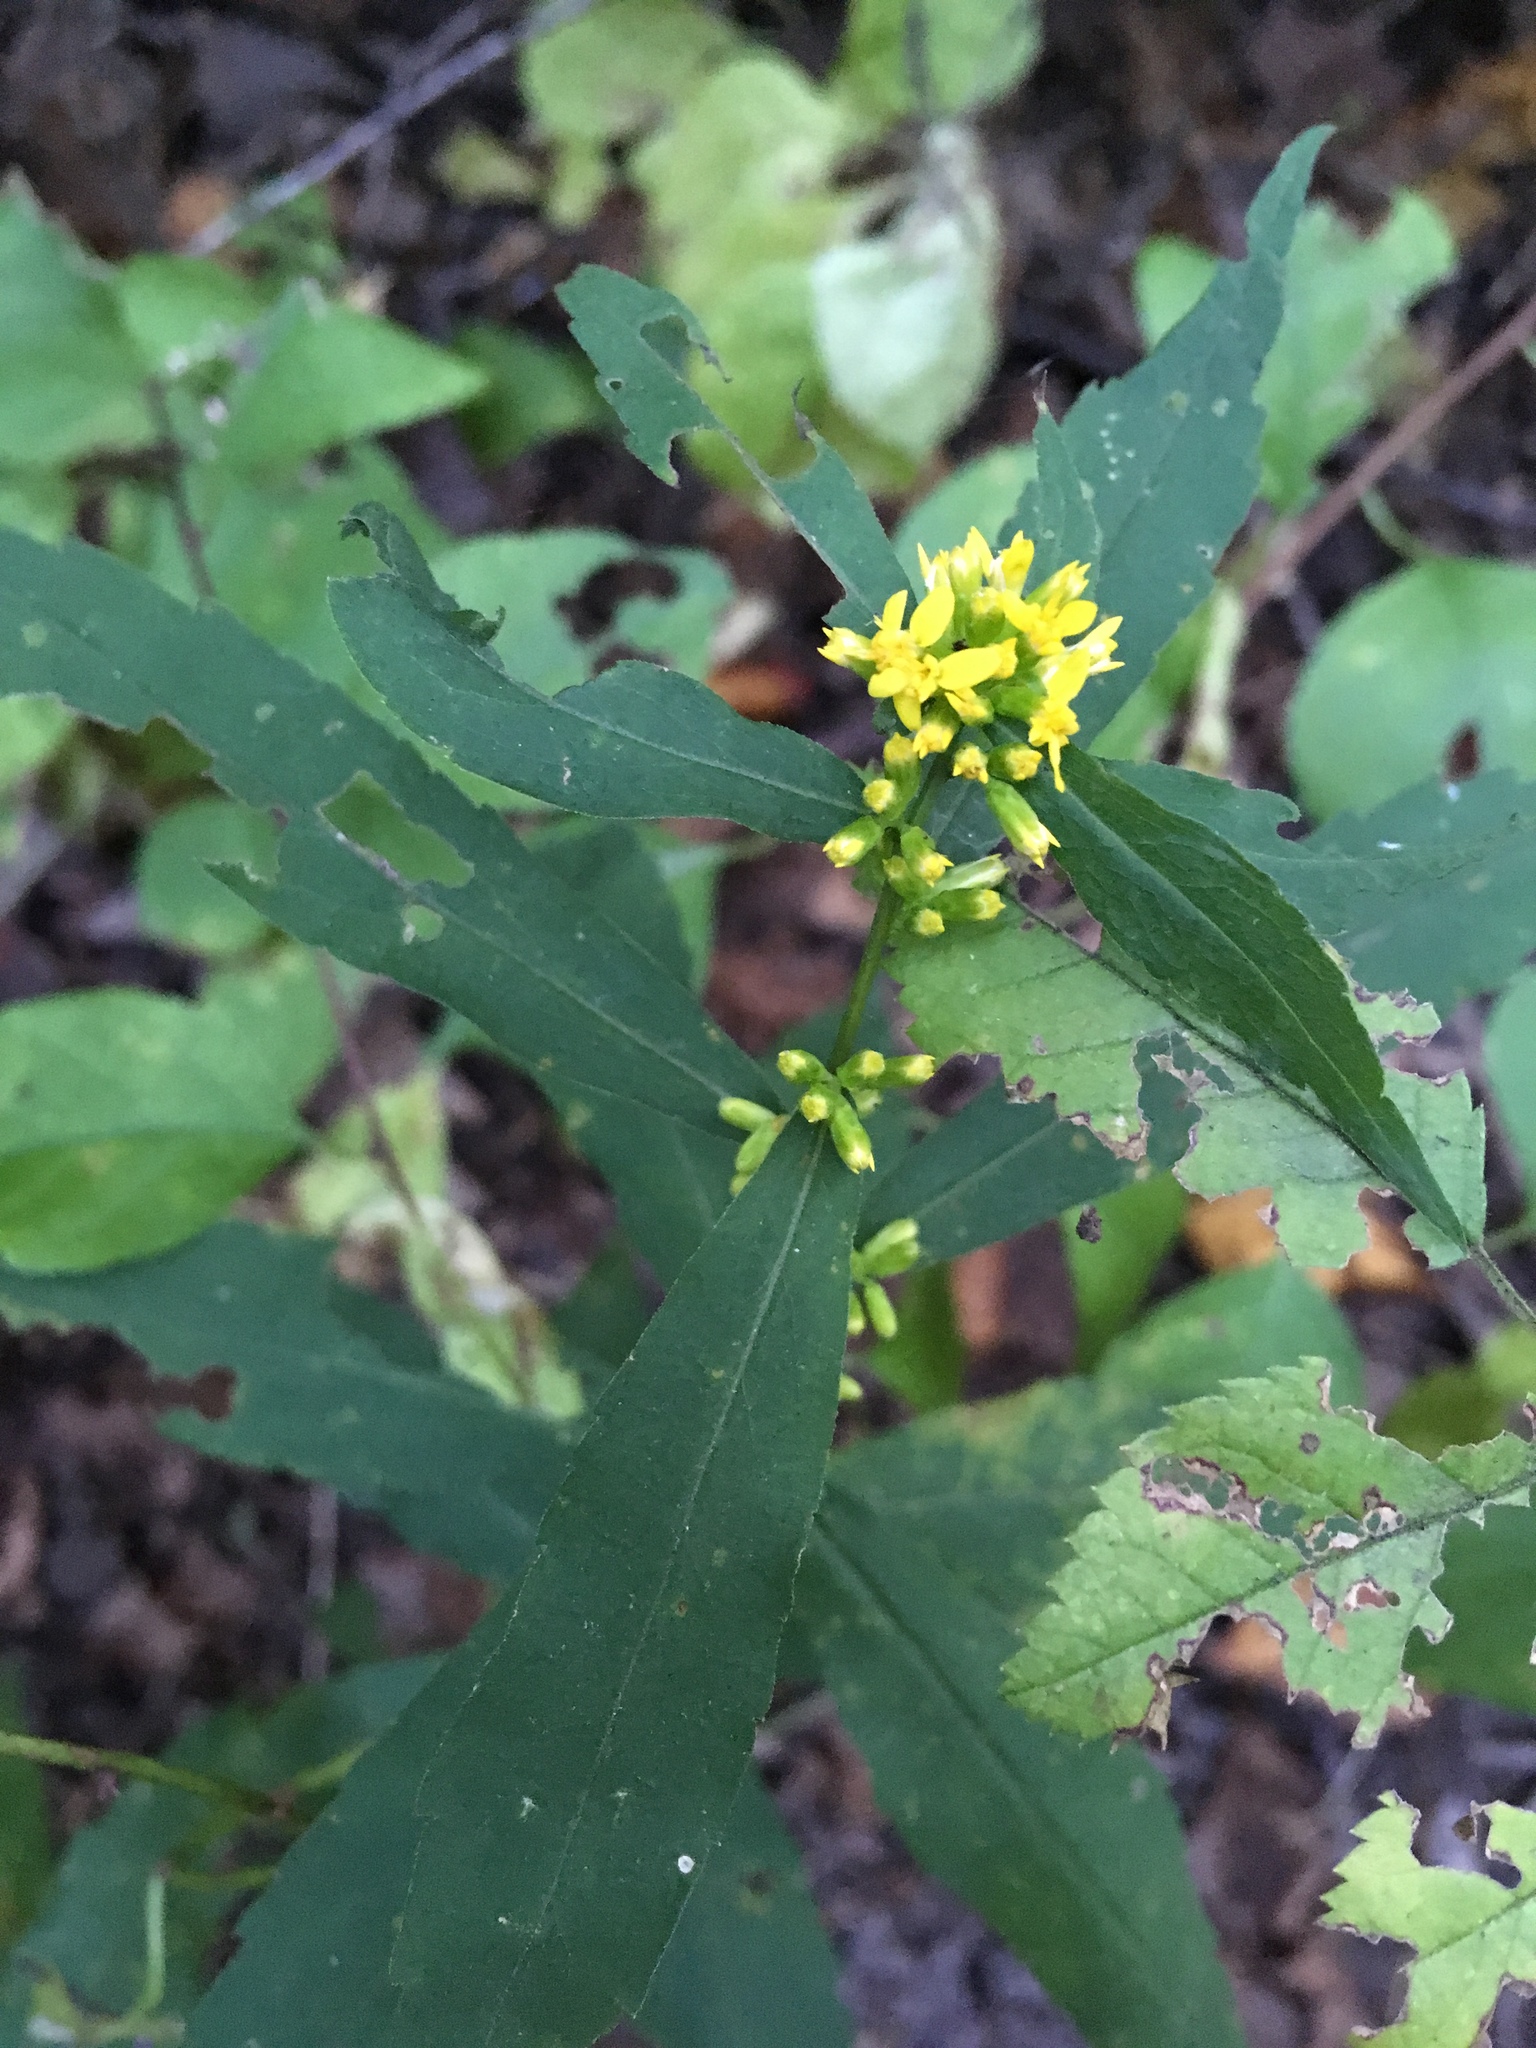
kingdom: Plantae
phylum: Tracheophyta
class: Magnoliopsida
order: Asterales
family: Asteraceae
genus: Solidago
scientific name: Solidago caesia
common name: Woodland goldenrod
